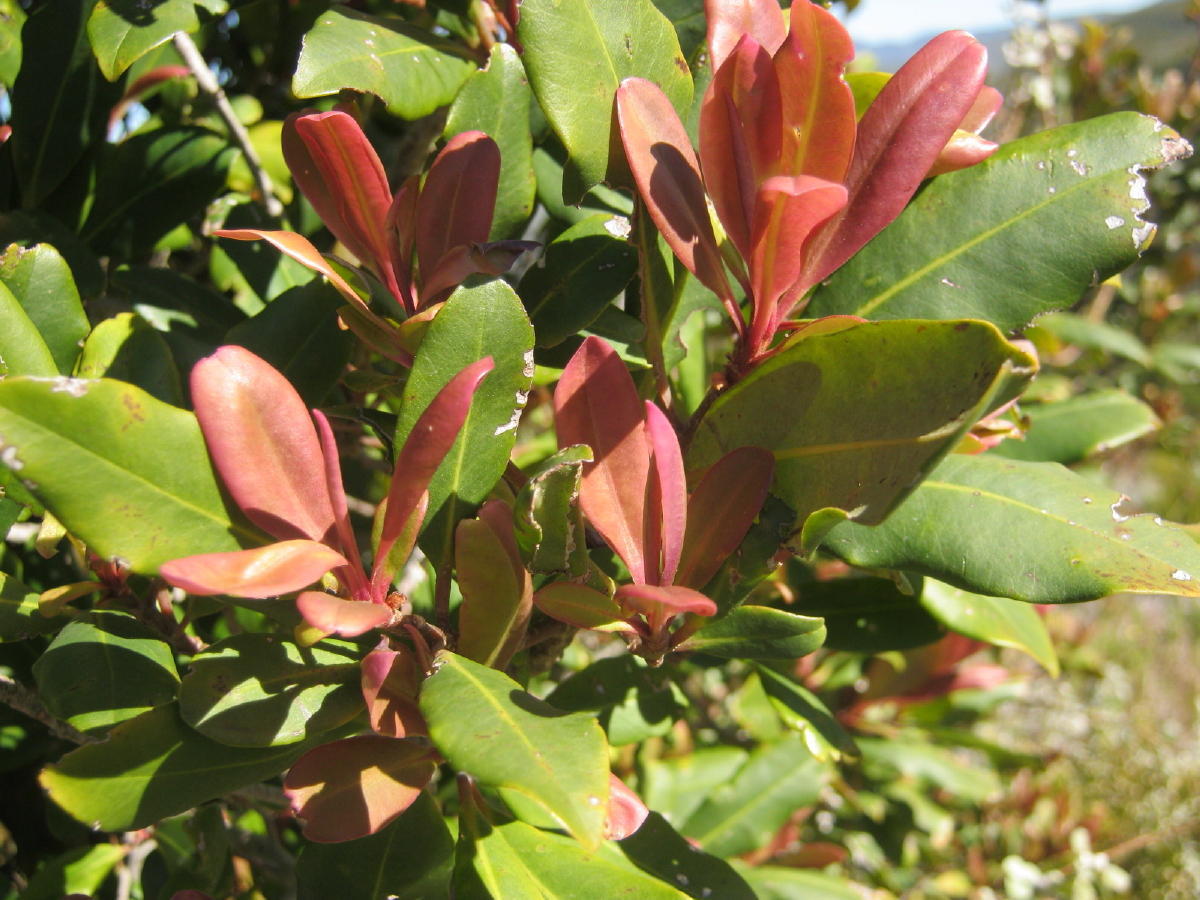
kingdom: Plantae
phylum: Tracheophyta
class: Magnoliopsida
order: Ericales
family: Primulaceae
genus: Myrsine
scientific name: Myrsine melanophloeos
